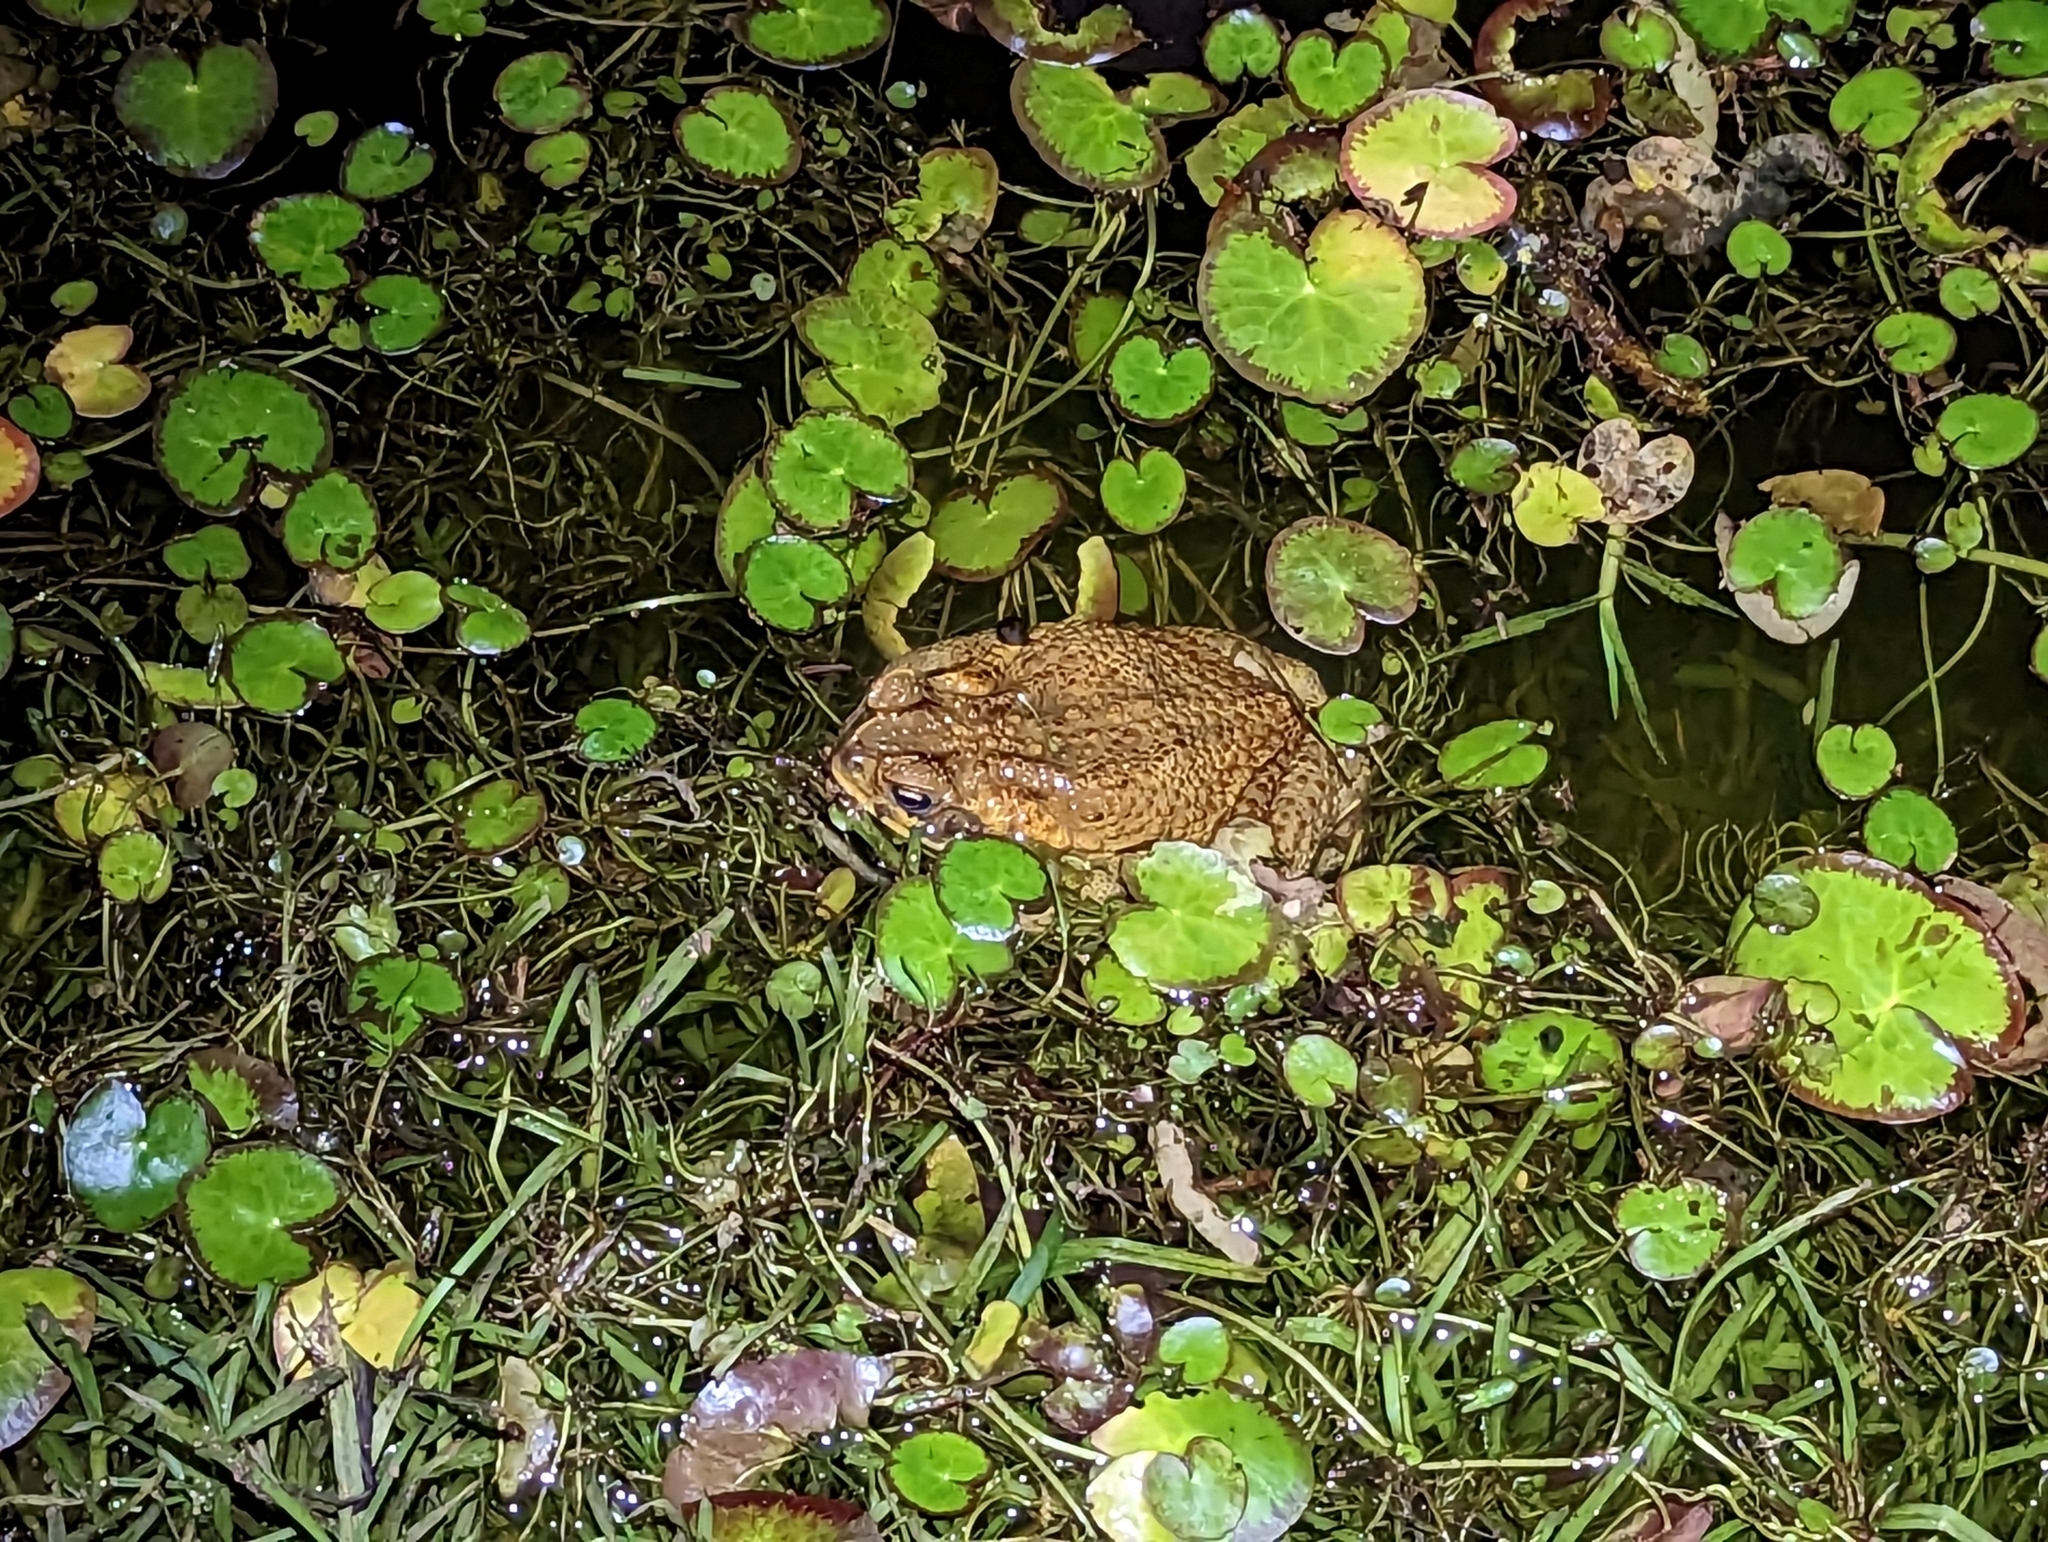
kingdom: Animalia
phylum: Chordata
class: Amphibia
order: Anura
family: Bufonidae
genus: Rhinella
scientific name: Rhinella marina
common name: Cane toad
